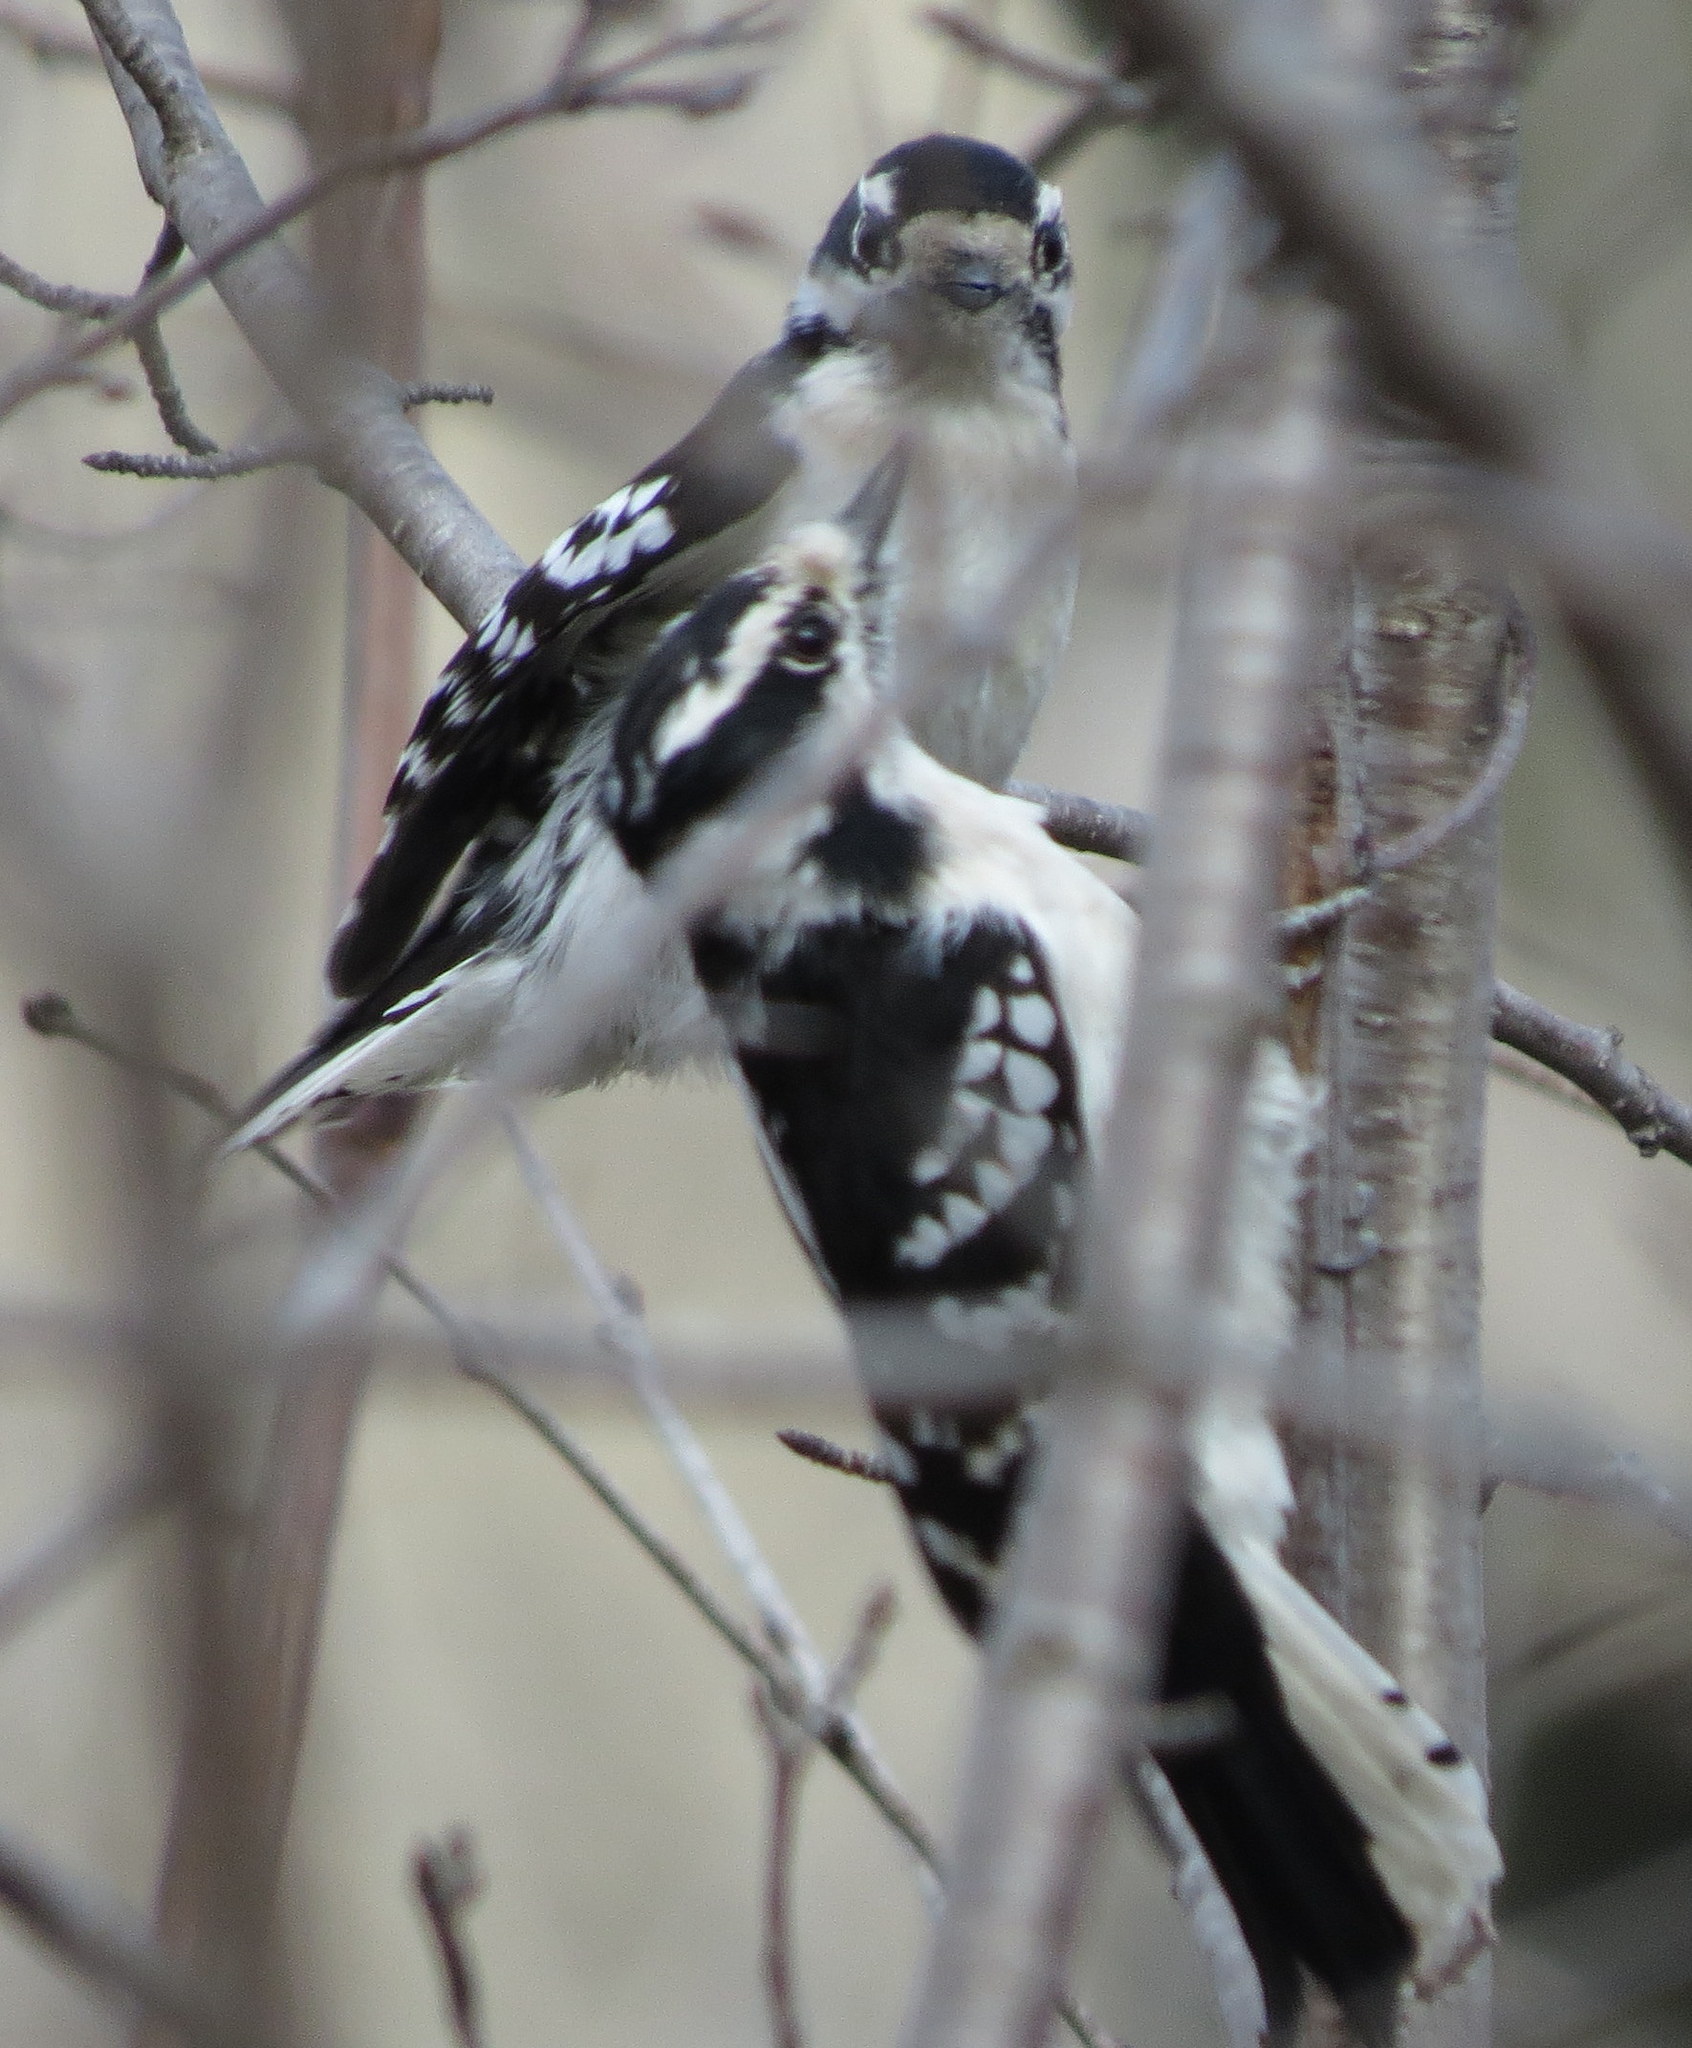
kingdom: Animalia
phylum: Chordata
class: Aves
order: Piciformes
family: Picidae
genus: Dryobates
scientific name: Dryobates pubescens
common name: Downy woodpecker
